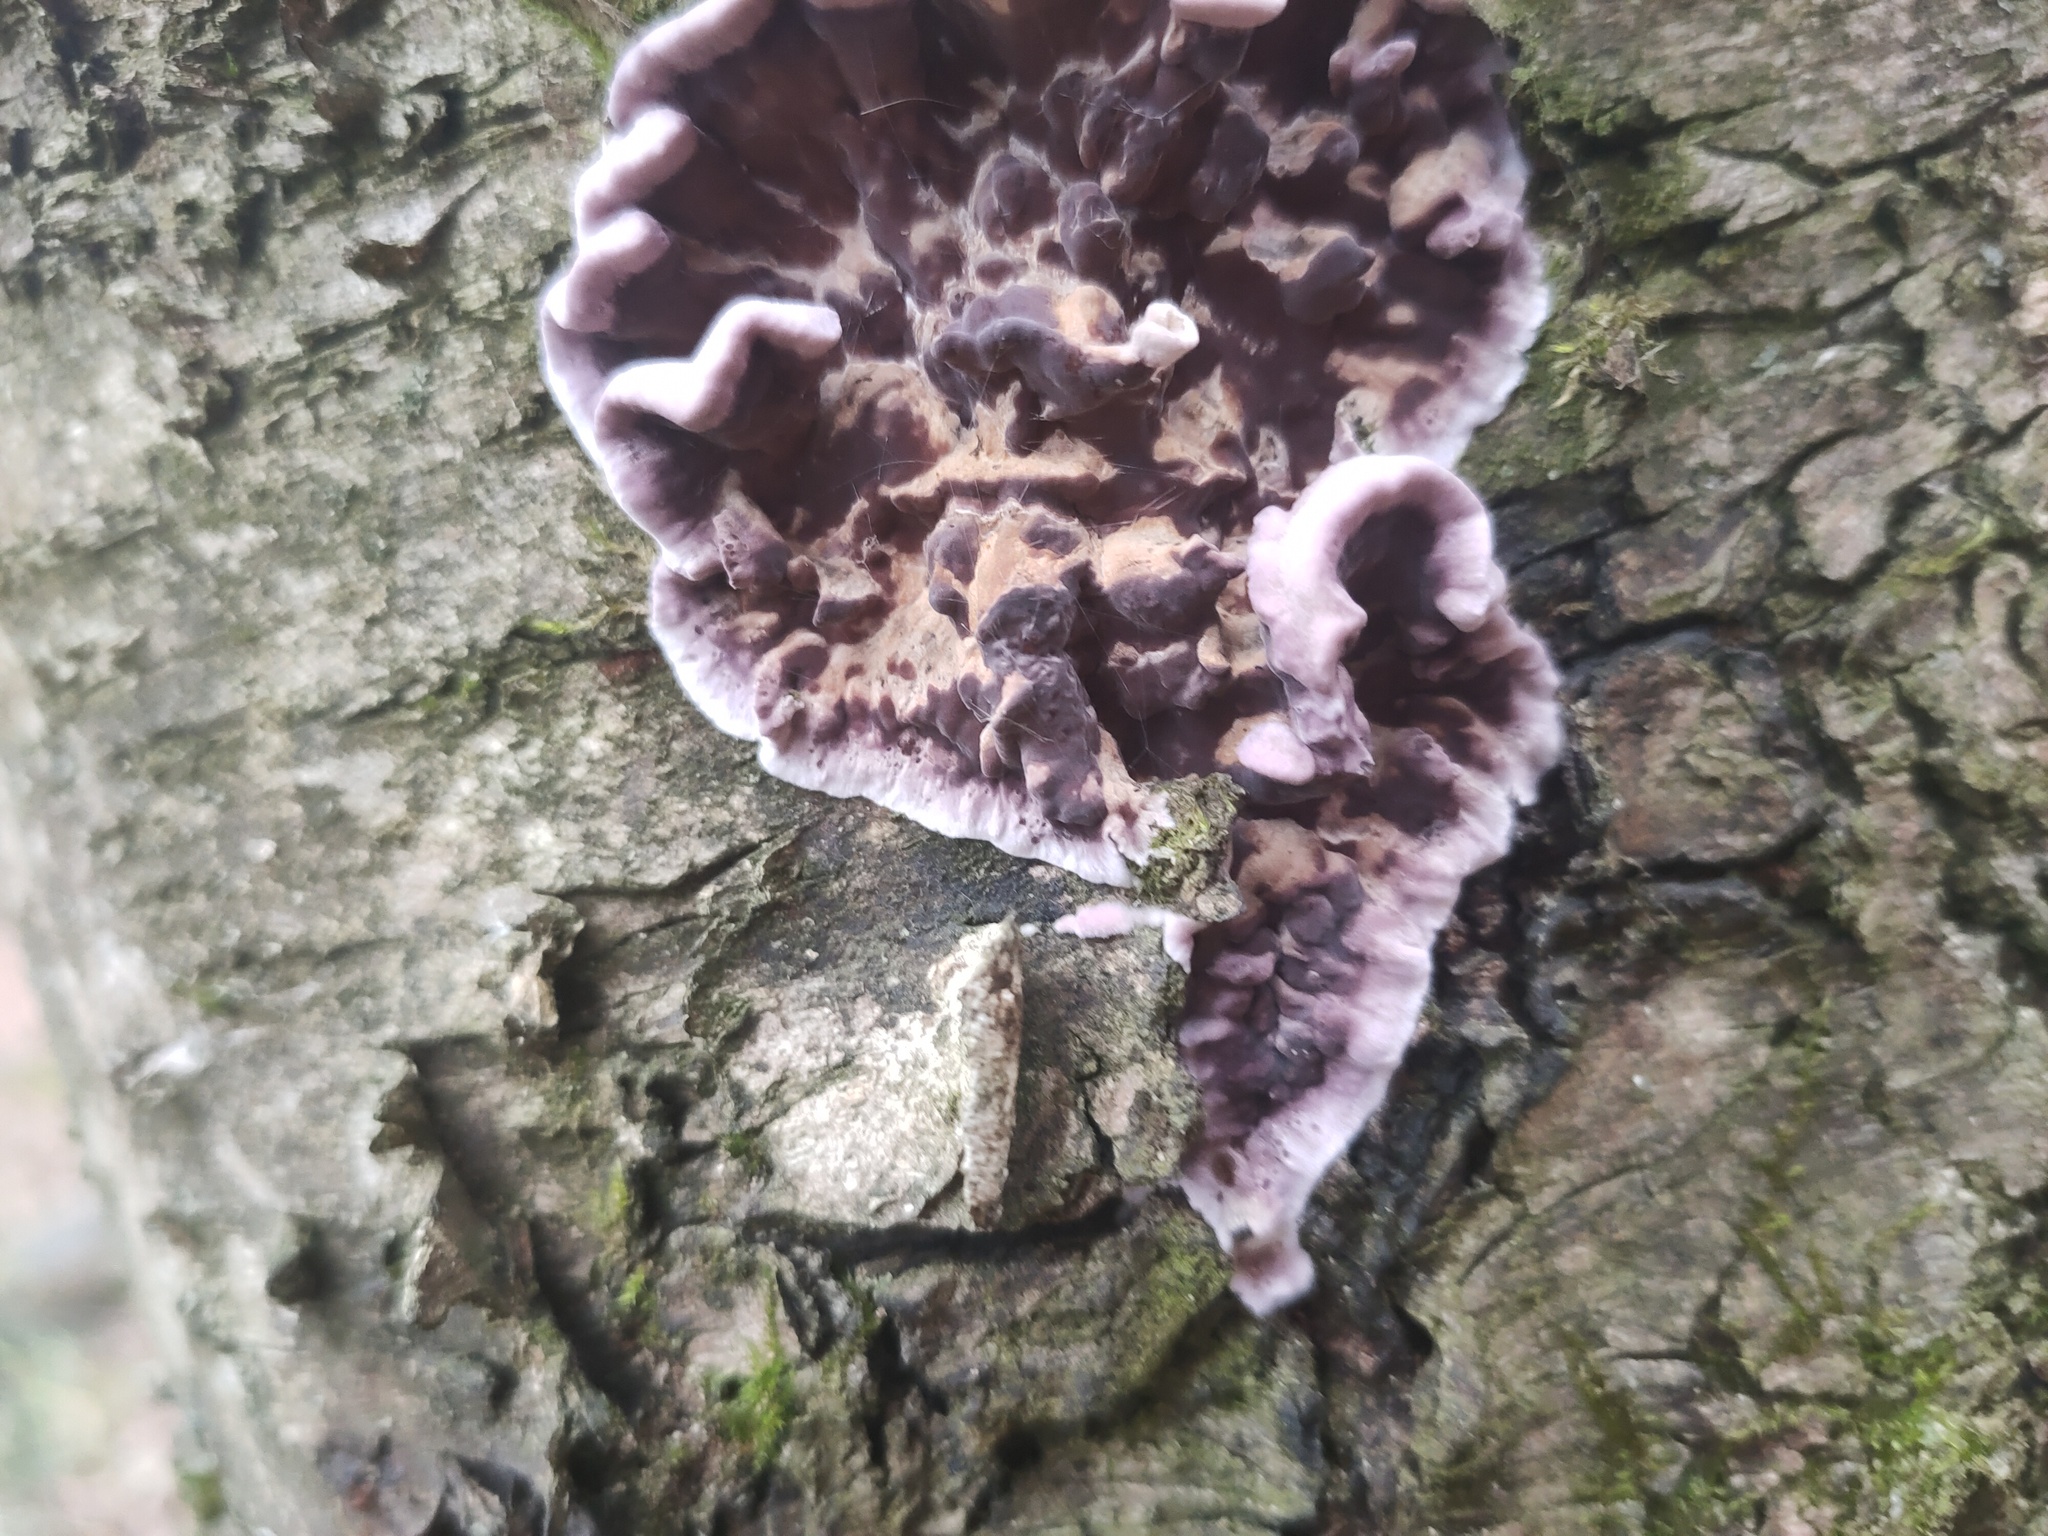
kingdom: Fungi
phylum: Basidiomycota
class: Agaricomycetes
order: Agaricales
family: Cyphellaceae
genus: Chondrostereum
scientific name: Chondrostereum purpureum
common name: Silver leaf disease
